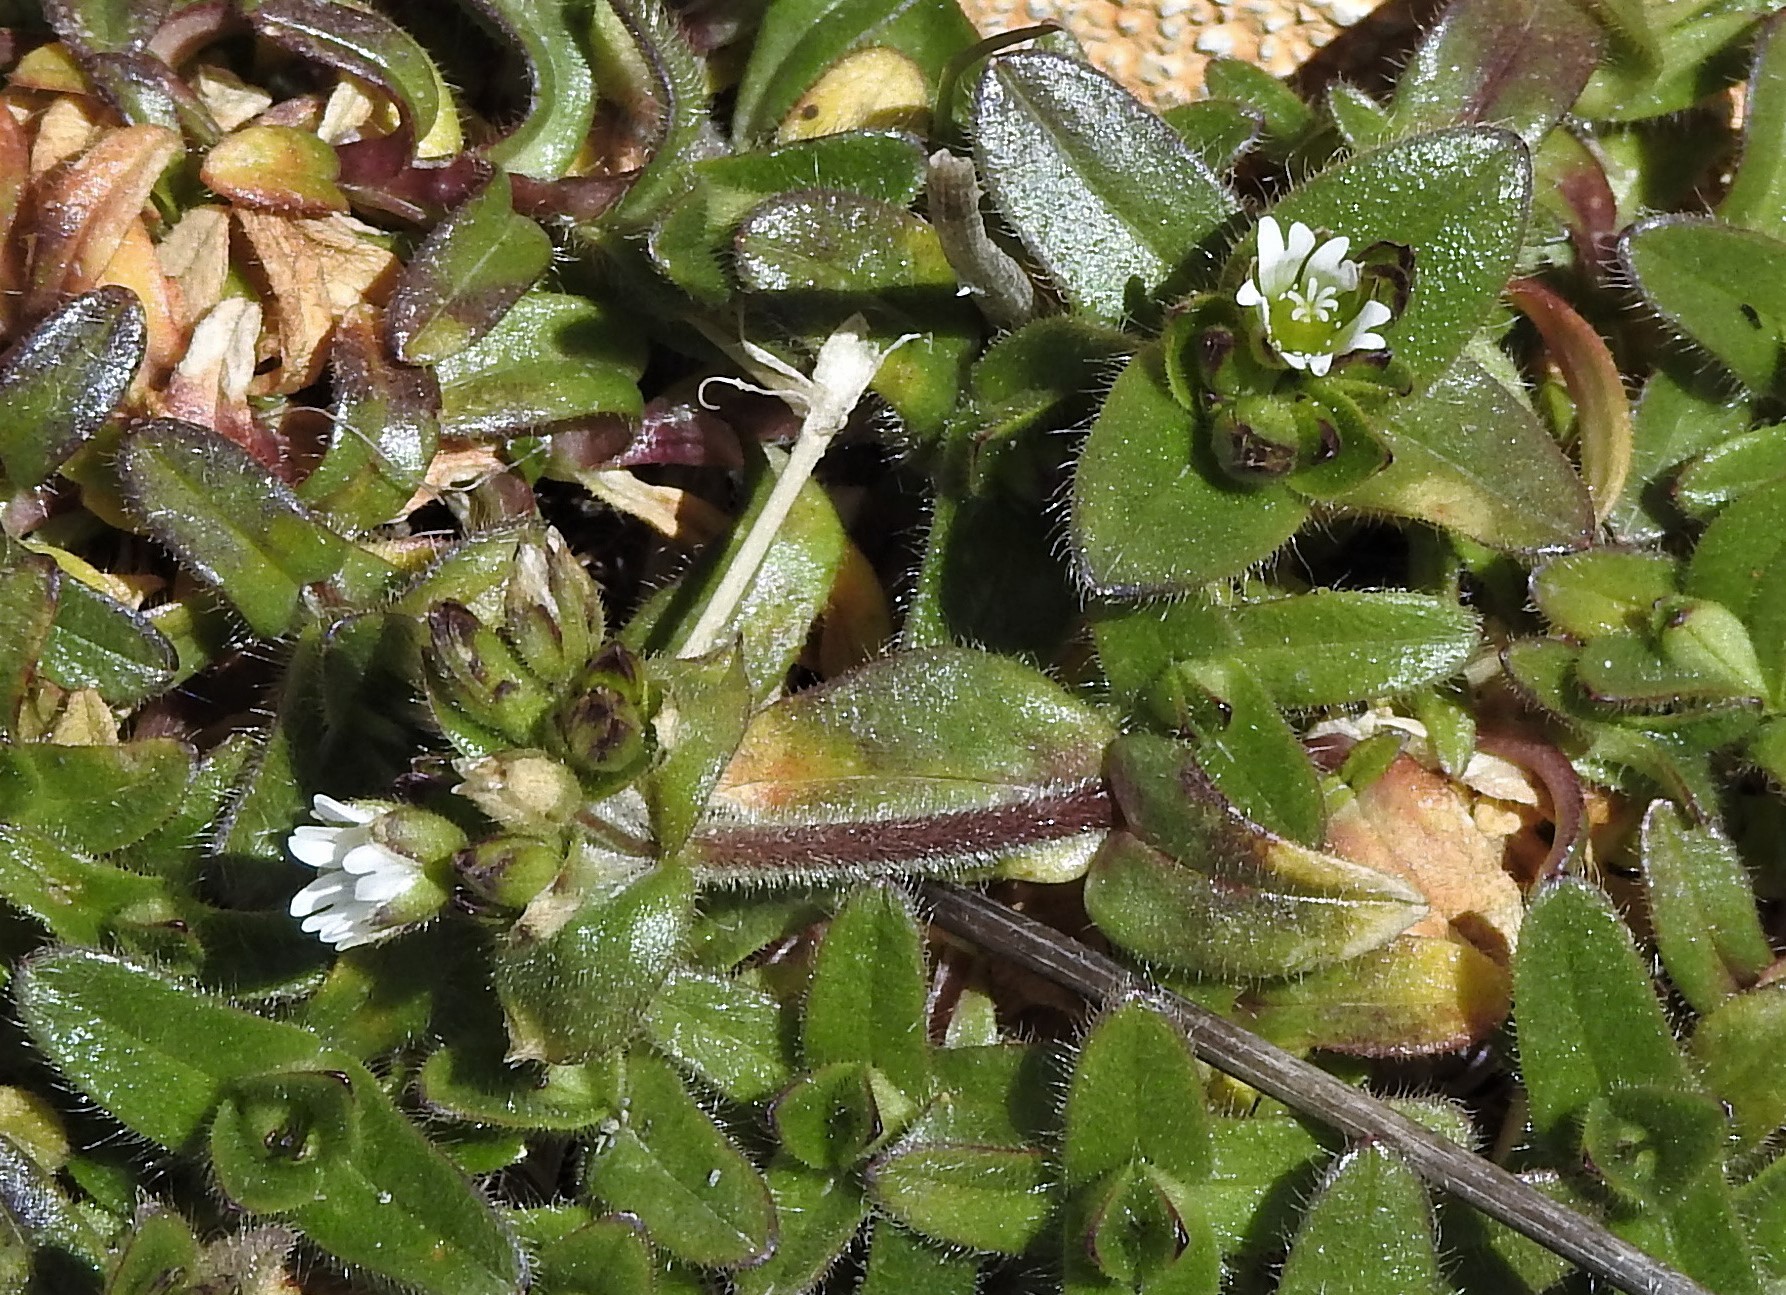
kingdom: Plantae
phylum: Tracheophyta
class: Magnoliopsida
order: Caryophyllales
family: Caryophyllaceae
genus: Cerastium
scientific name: Cerastium fontanum
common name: Common mouse-ear
